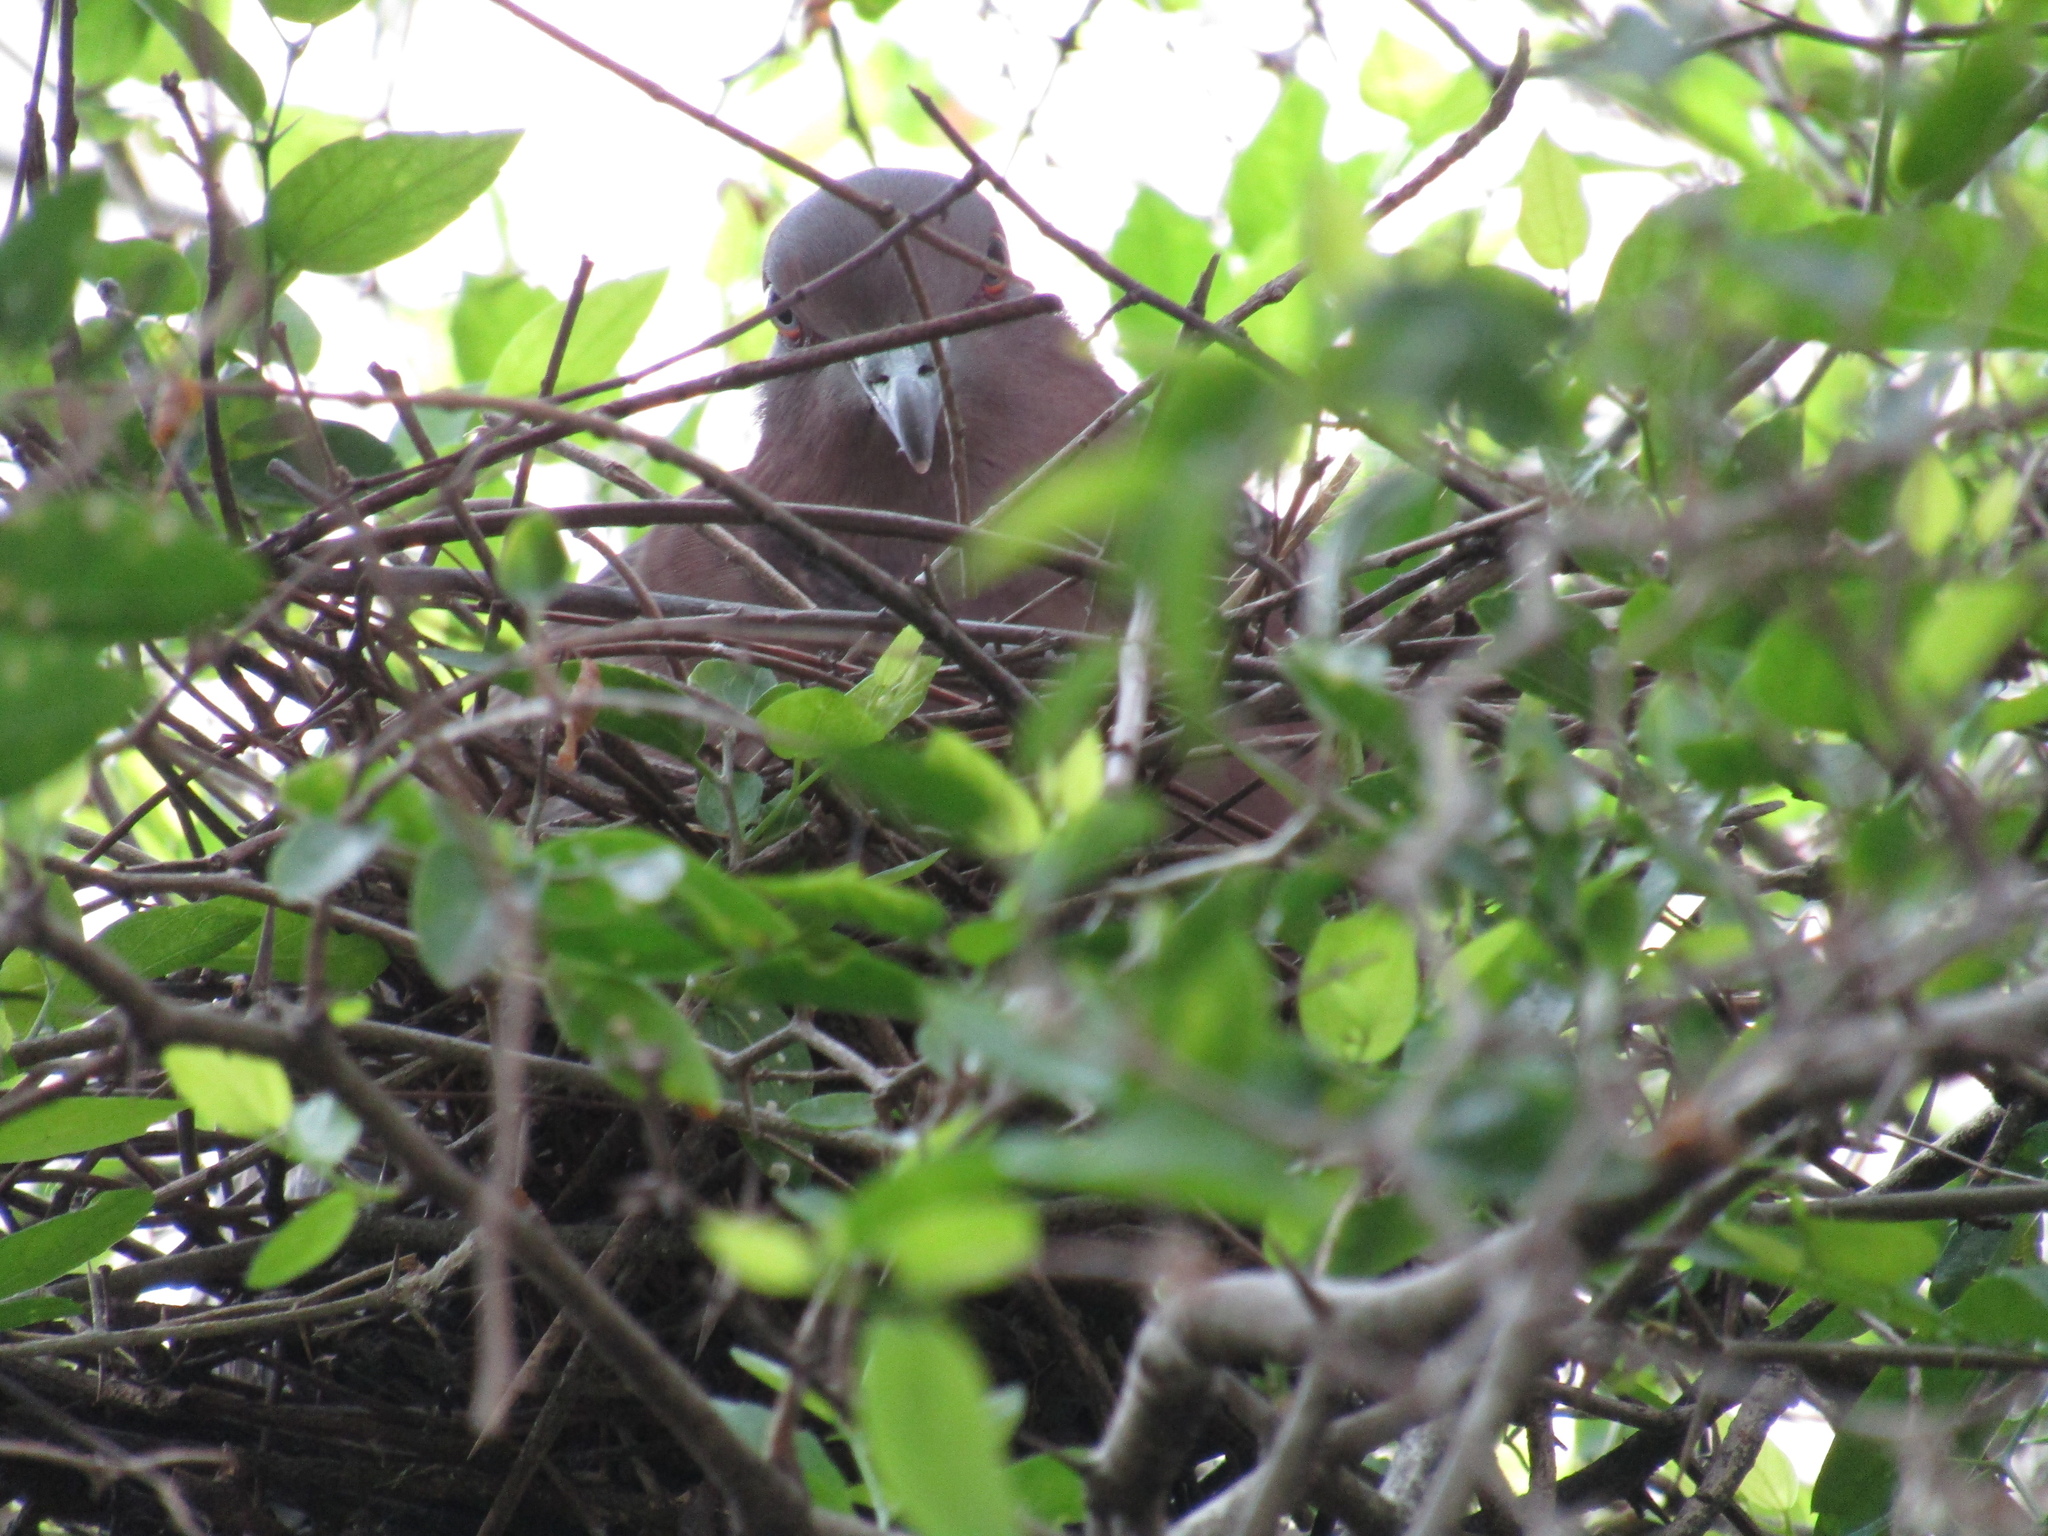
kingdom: Animalia
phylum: Chordata
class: Aves
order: Columbiformes
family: Columbidae
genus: Patagioenas
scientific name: Patagioenas picazuro
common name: Picazuro pigeon
